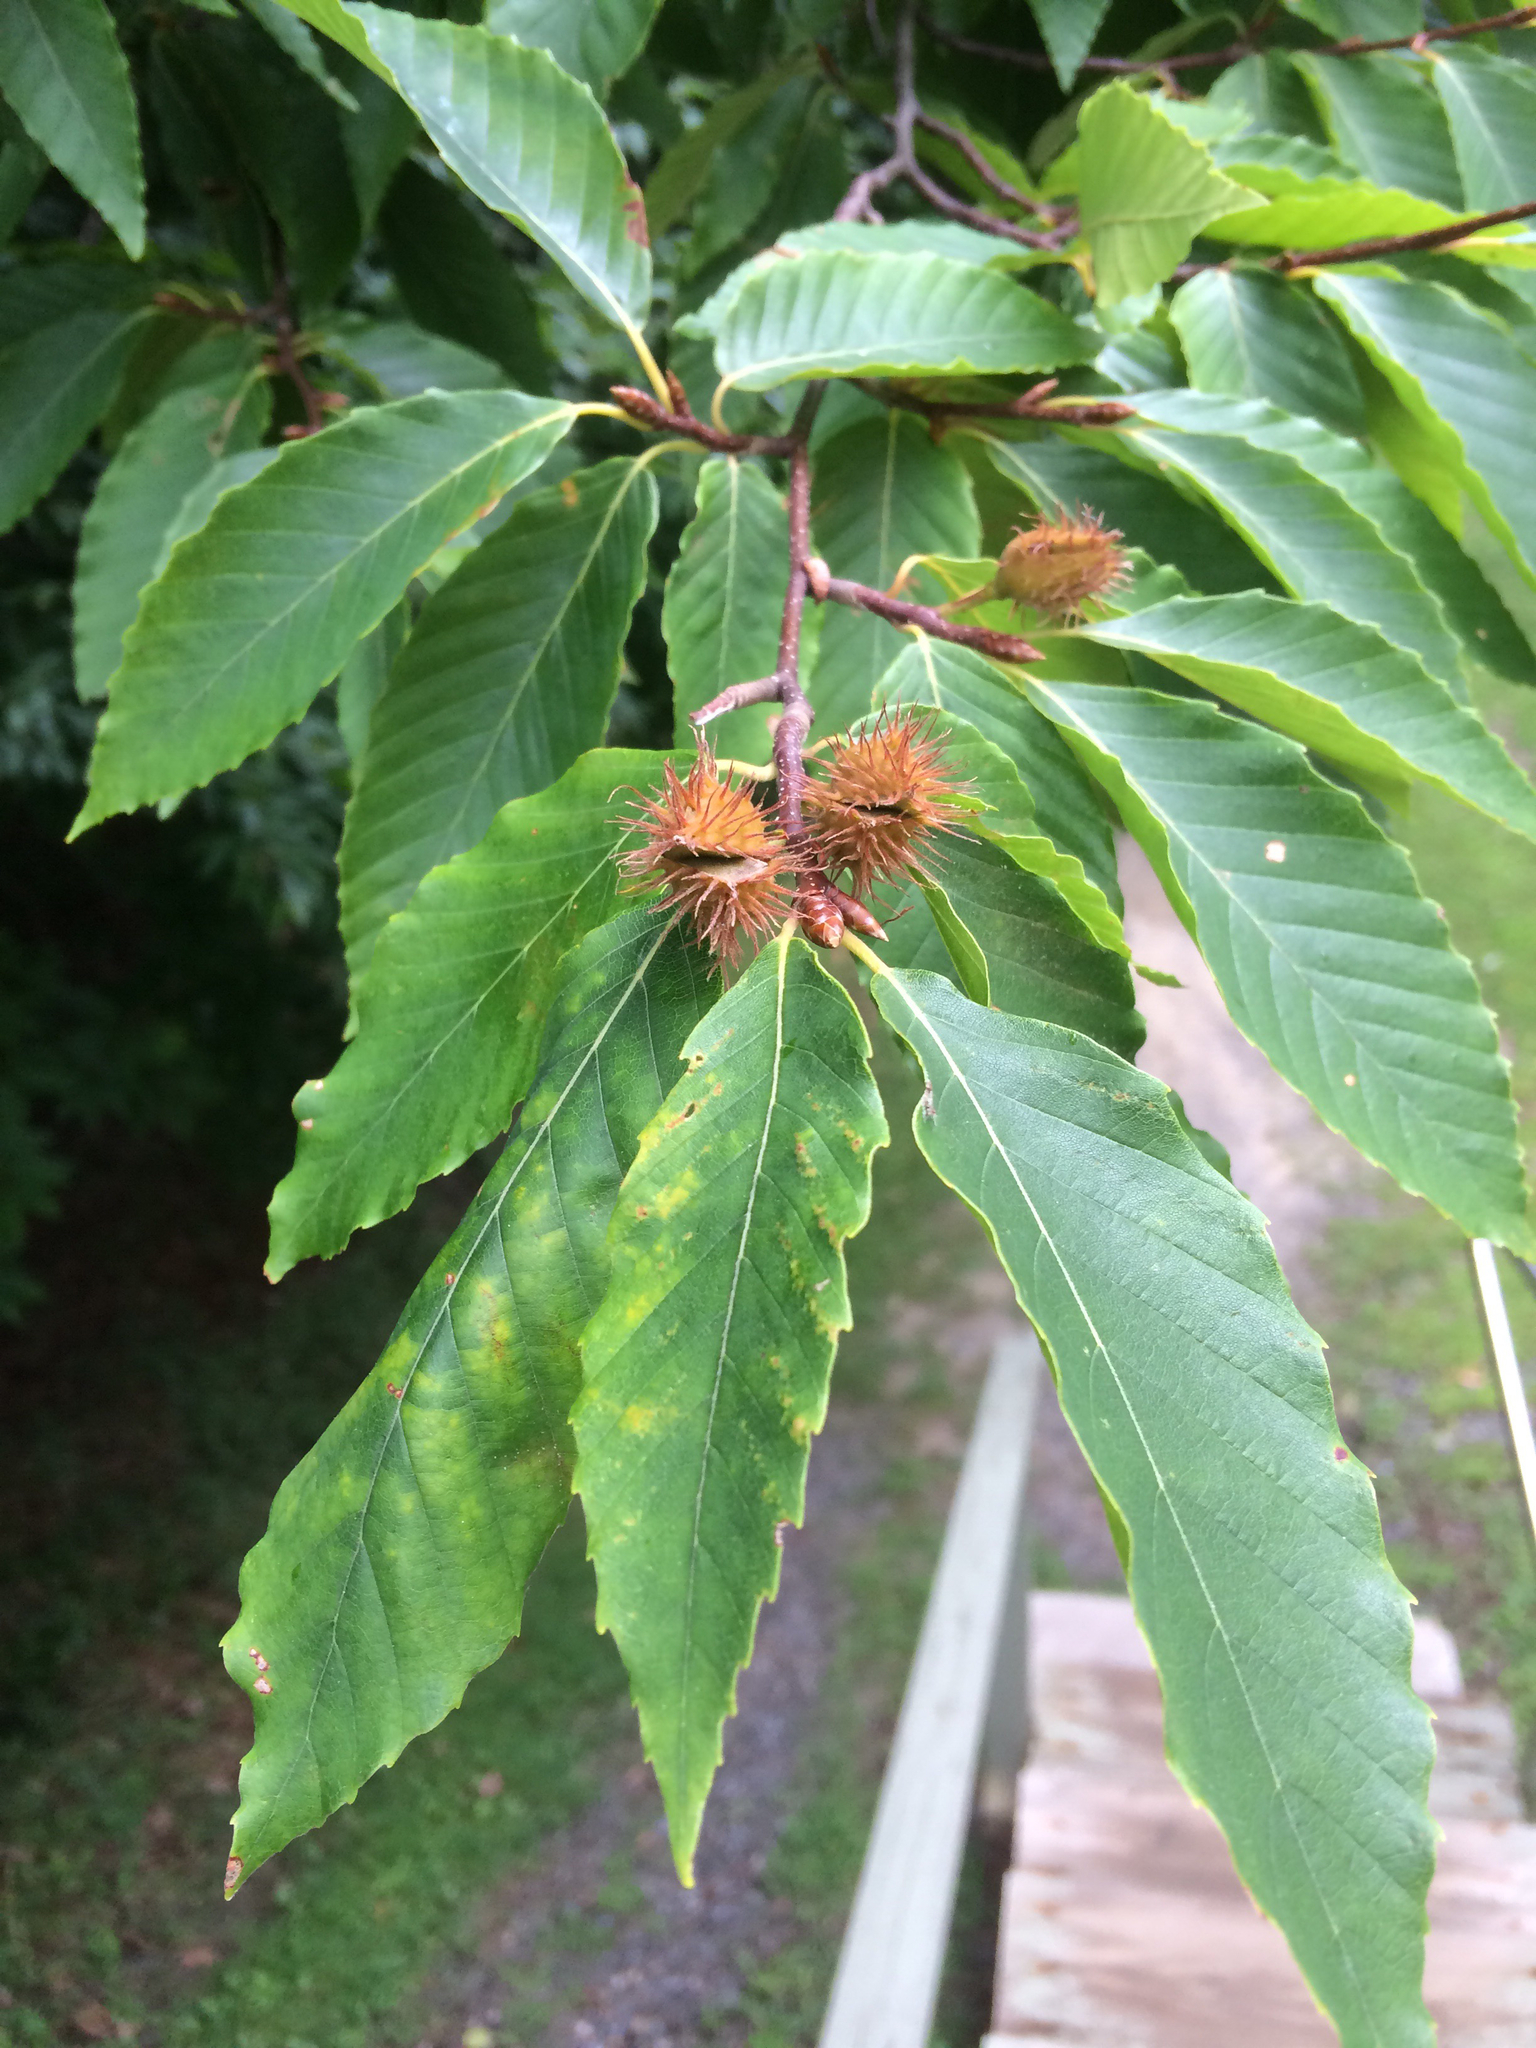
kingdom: Plantae
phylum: Tracheophyta
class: Magnoliopsida
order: Fagales
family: Fagaceae
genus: Fagus
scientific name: Fagus grandifolia
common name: American beech
